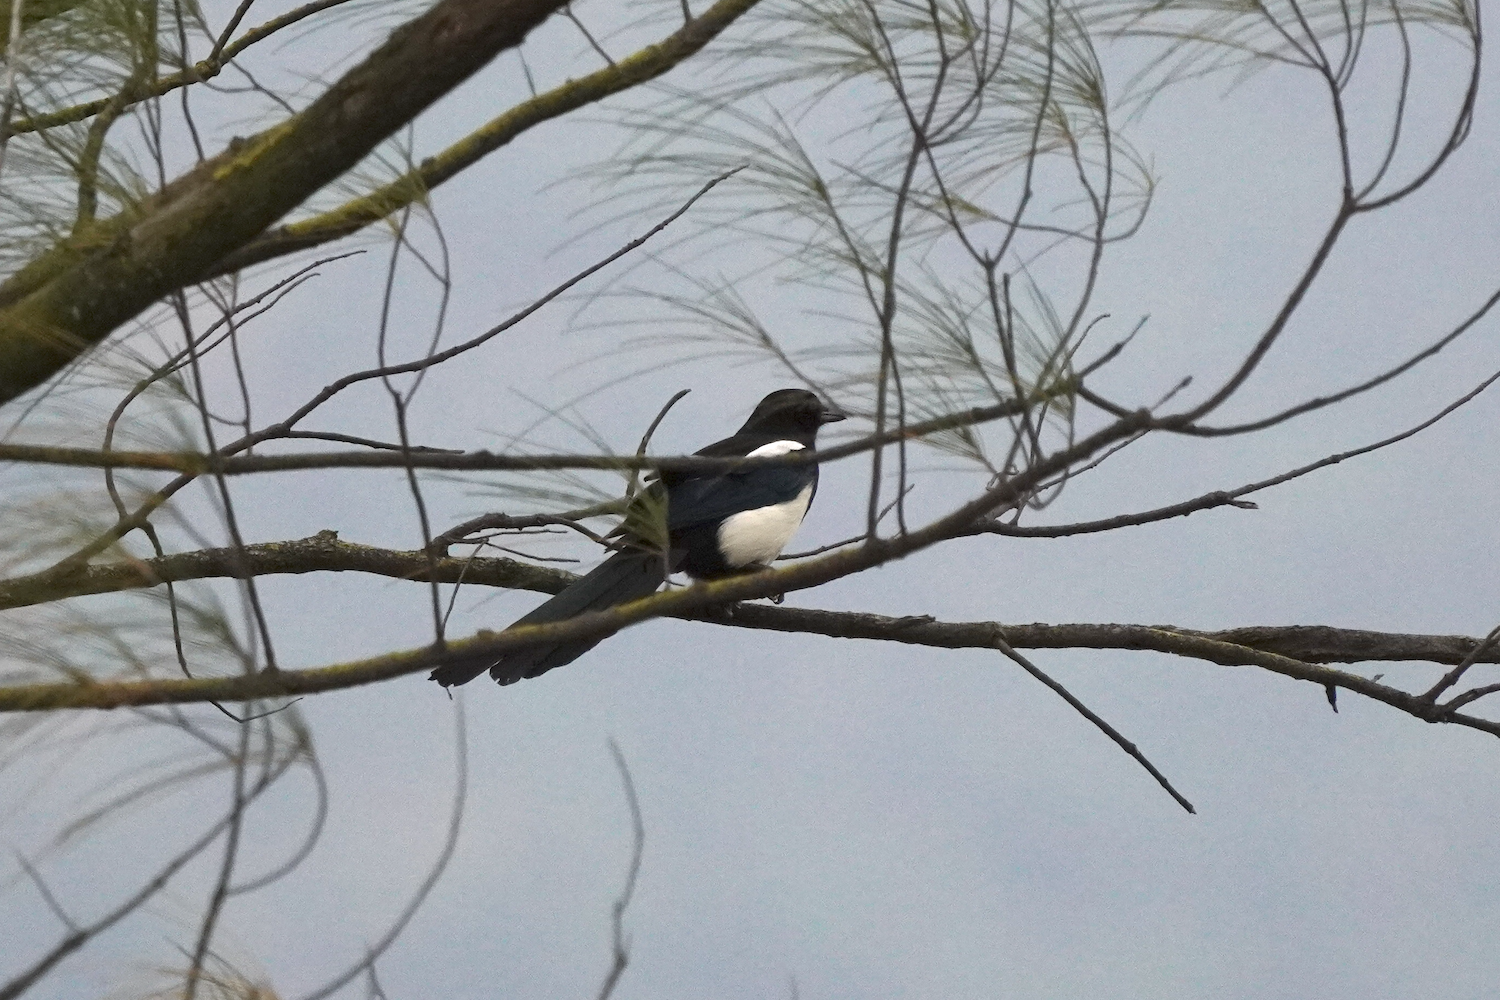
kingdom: Animalia
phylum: Chordata
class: Aves
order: Passeriformes
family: Corvidae
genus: Pica
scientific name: Pica serica
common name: Oriental magpie
